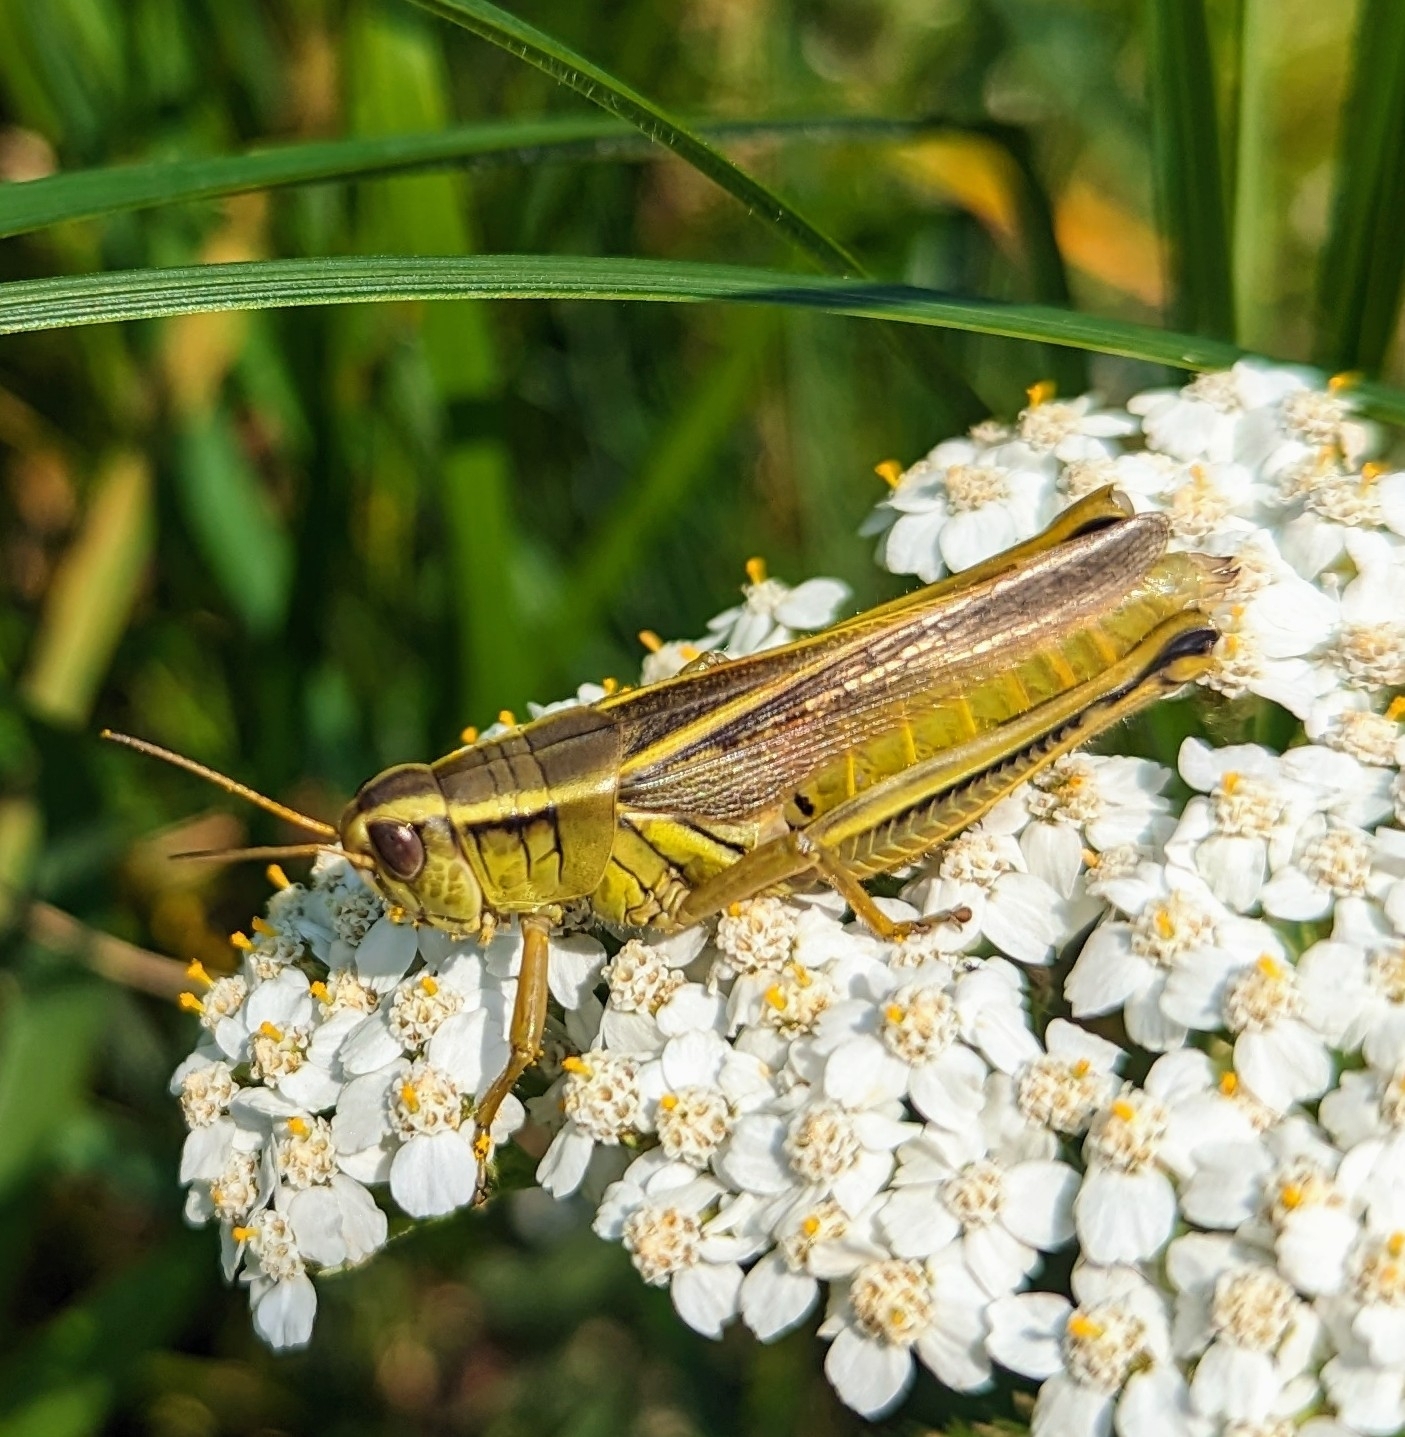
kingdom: Animalia
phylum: Arthropoda
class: Insecta
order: Orthoptera
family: Acrididae
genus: Melanoplus
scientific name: Melanoplus bivittatus
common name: Two-striped grasshopper
